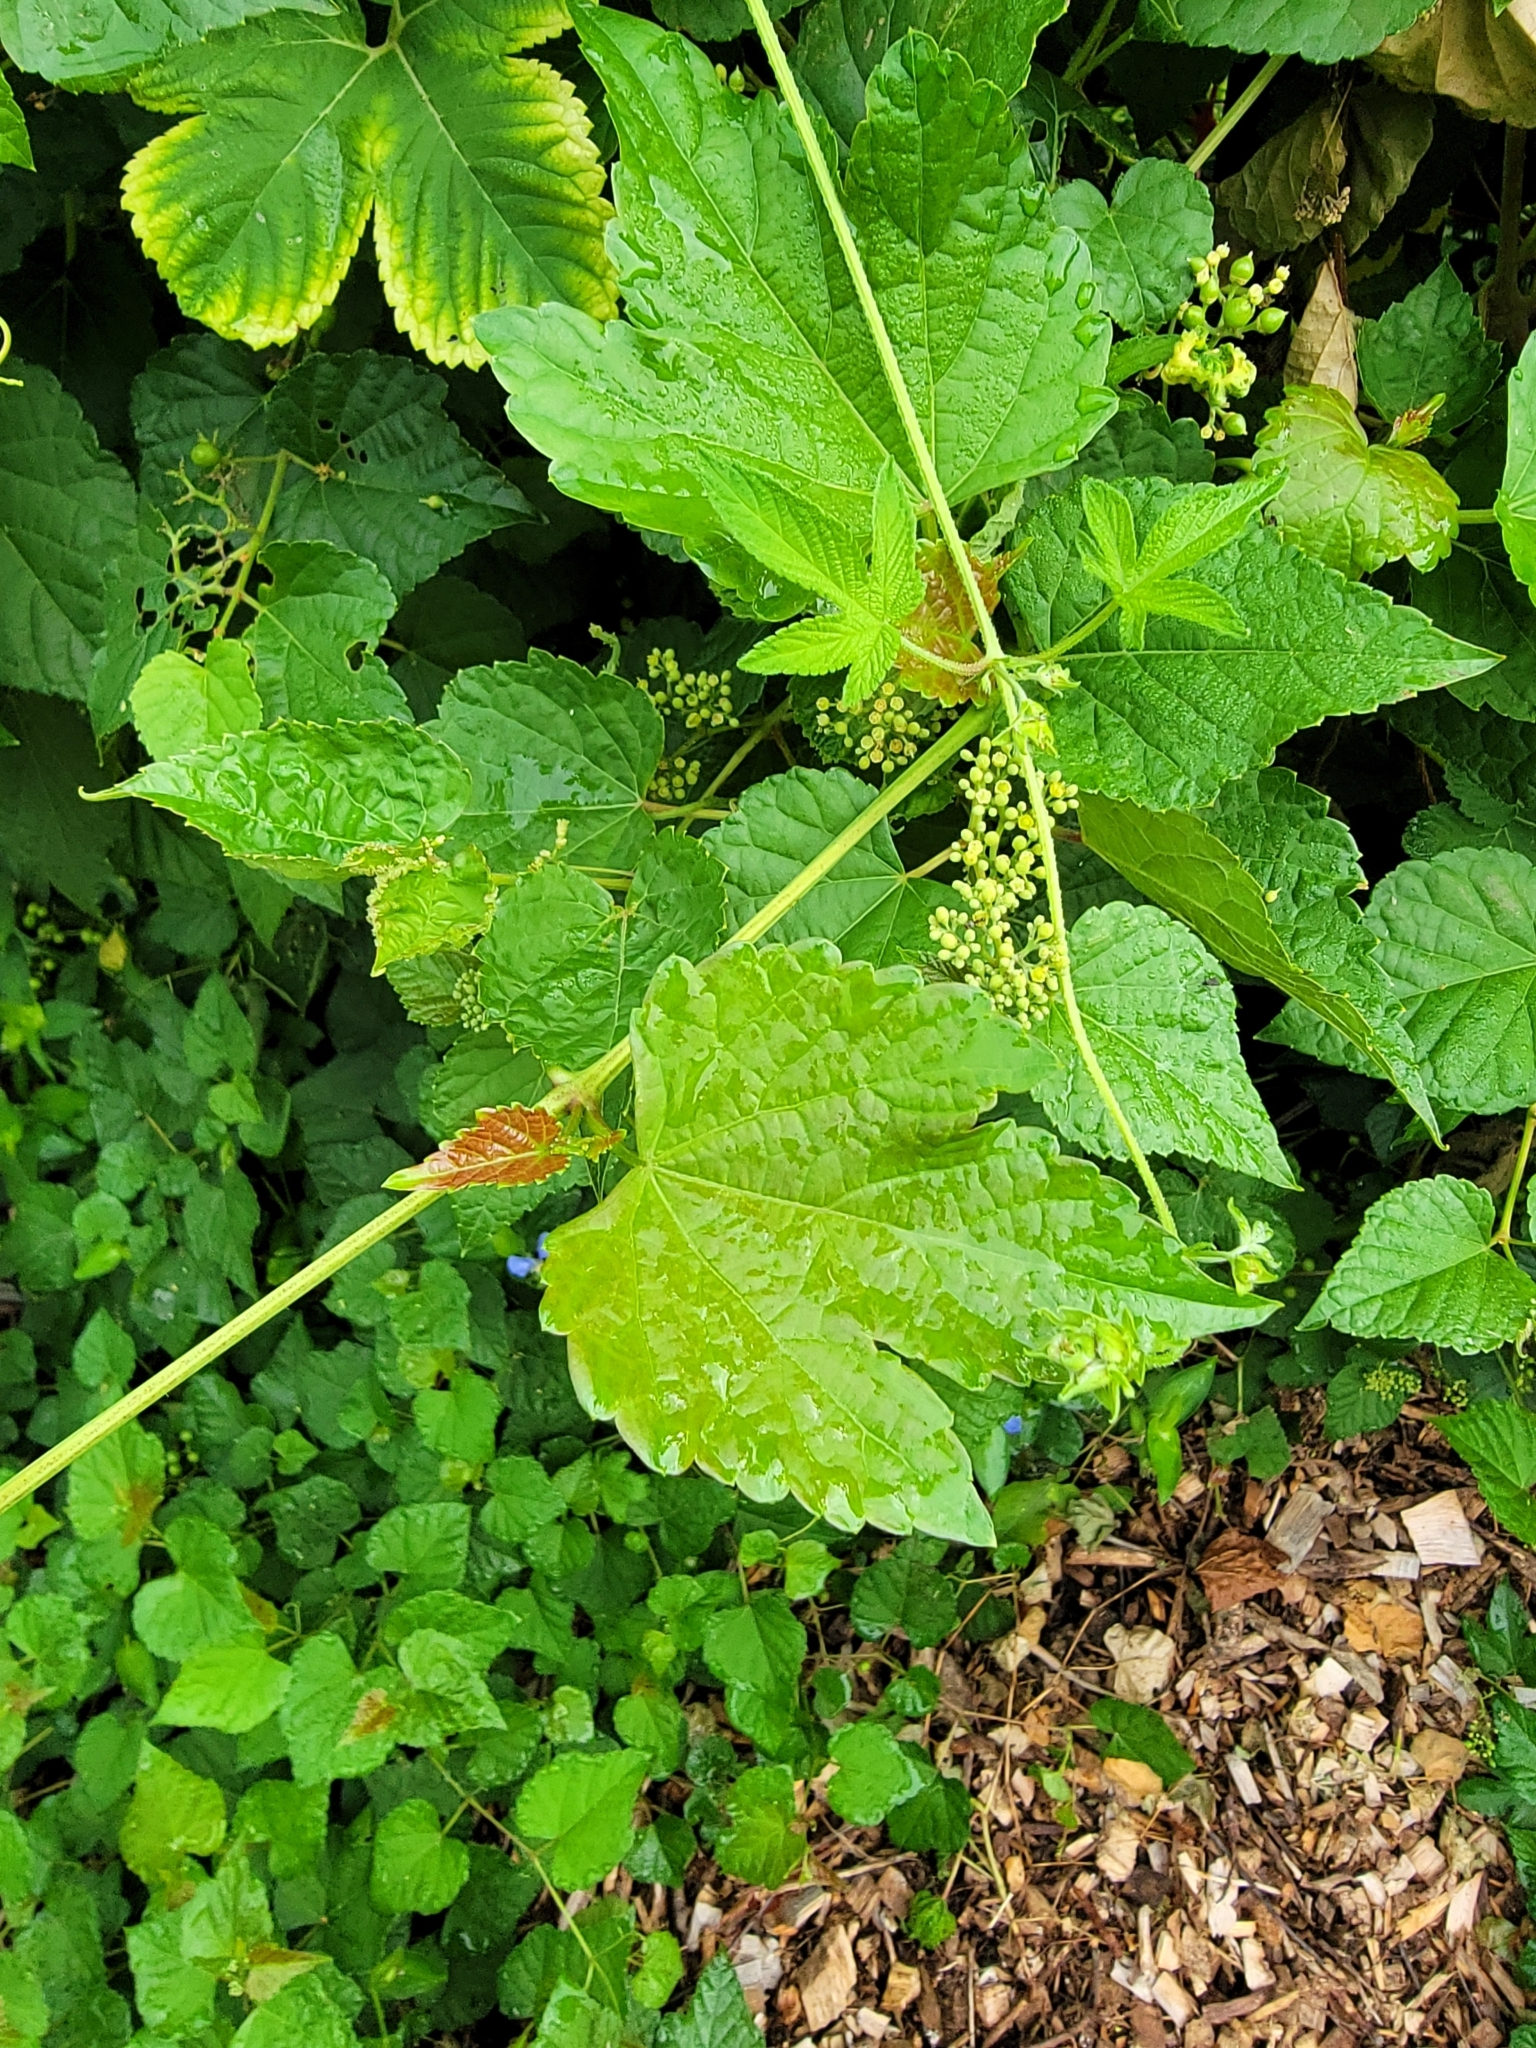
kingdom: Plantae
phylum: Tracheophyta
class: Magnoliopsida
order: Vitales
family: Vitaceae
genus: Ampelopsis
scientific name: Ampelopsis glandulosa
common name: Amur peppervine
